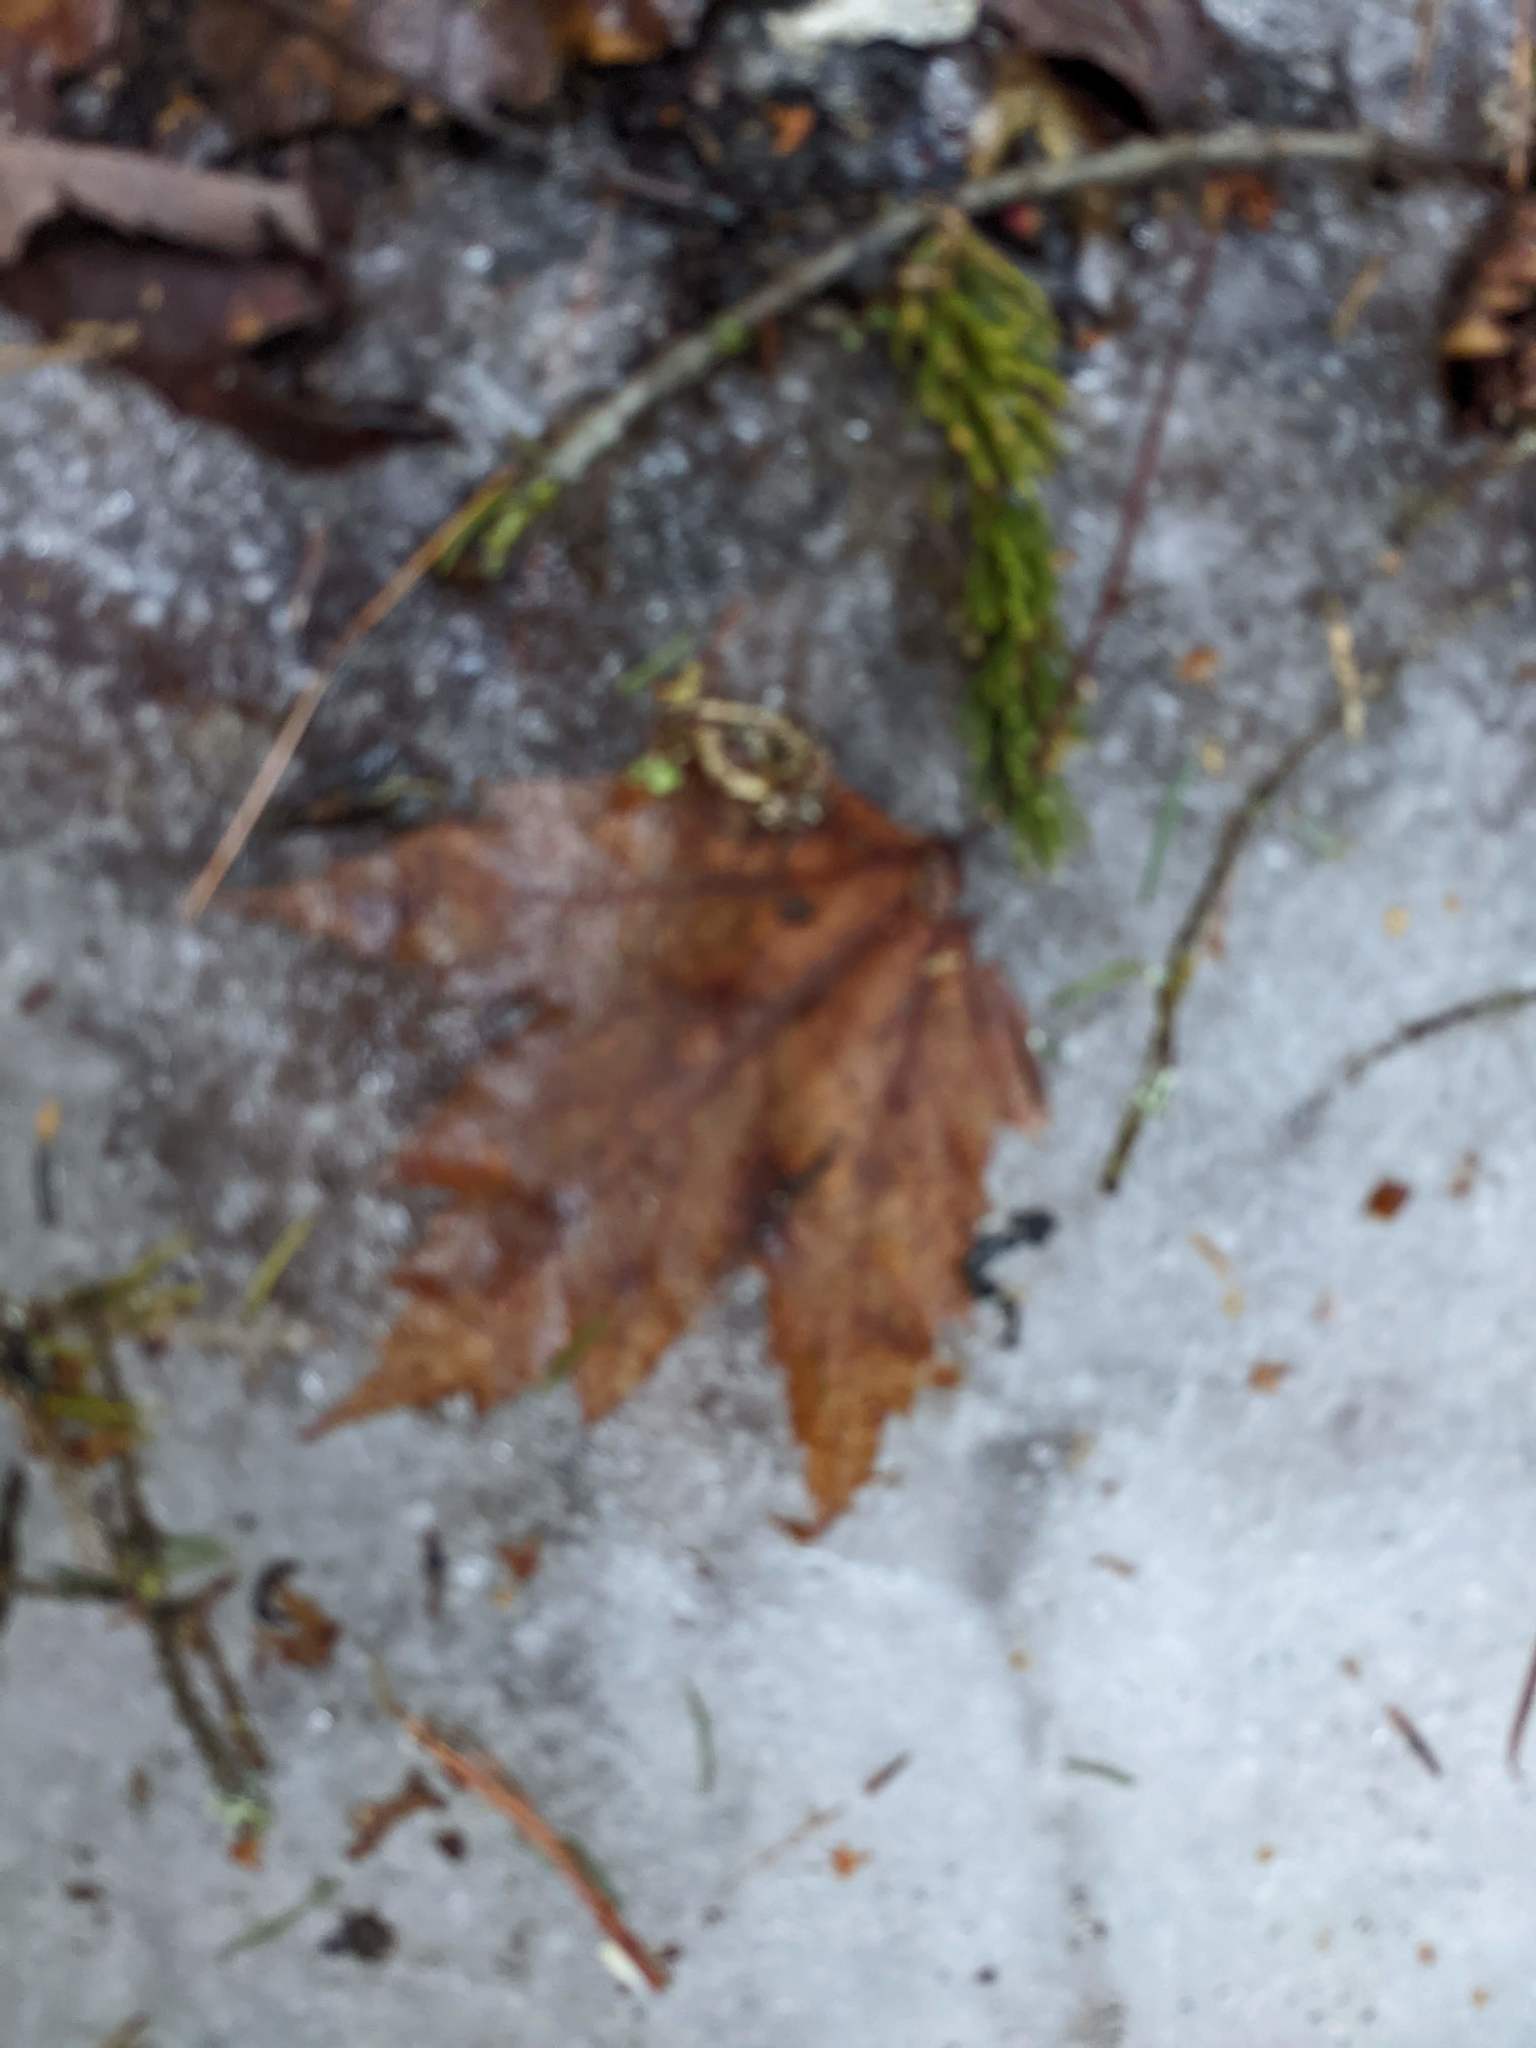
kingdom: Plantae
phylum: Tracheophyta
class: Magnoliopsida
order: Sapindales
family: Sapindaceae
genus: Acer
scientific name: Acer rubrum
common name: Red maple
